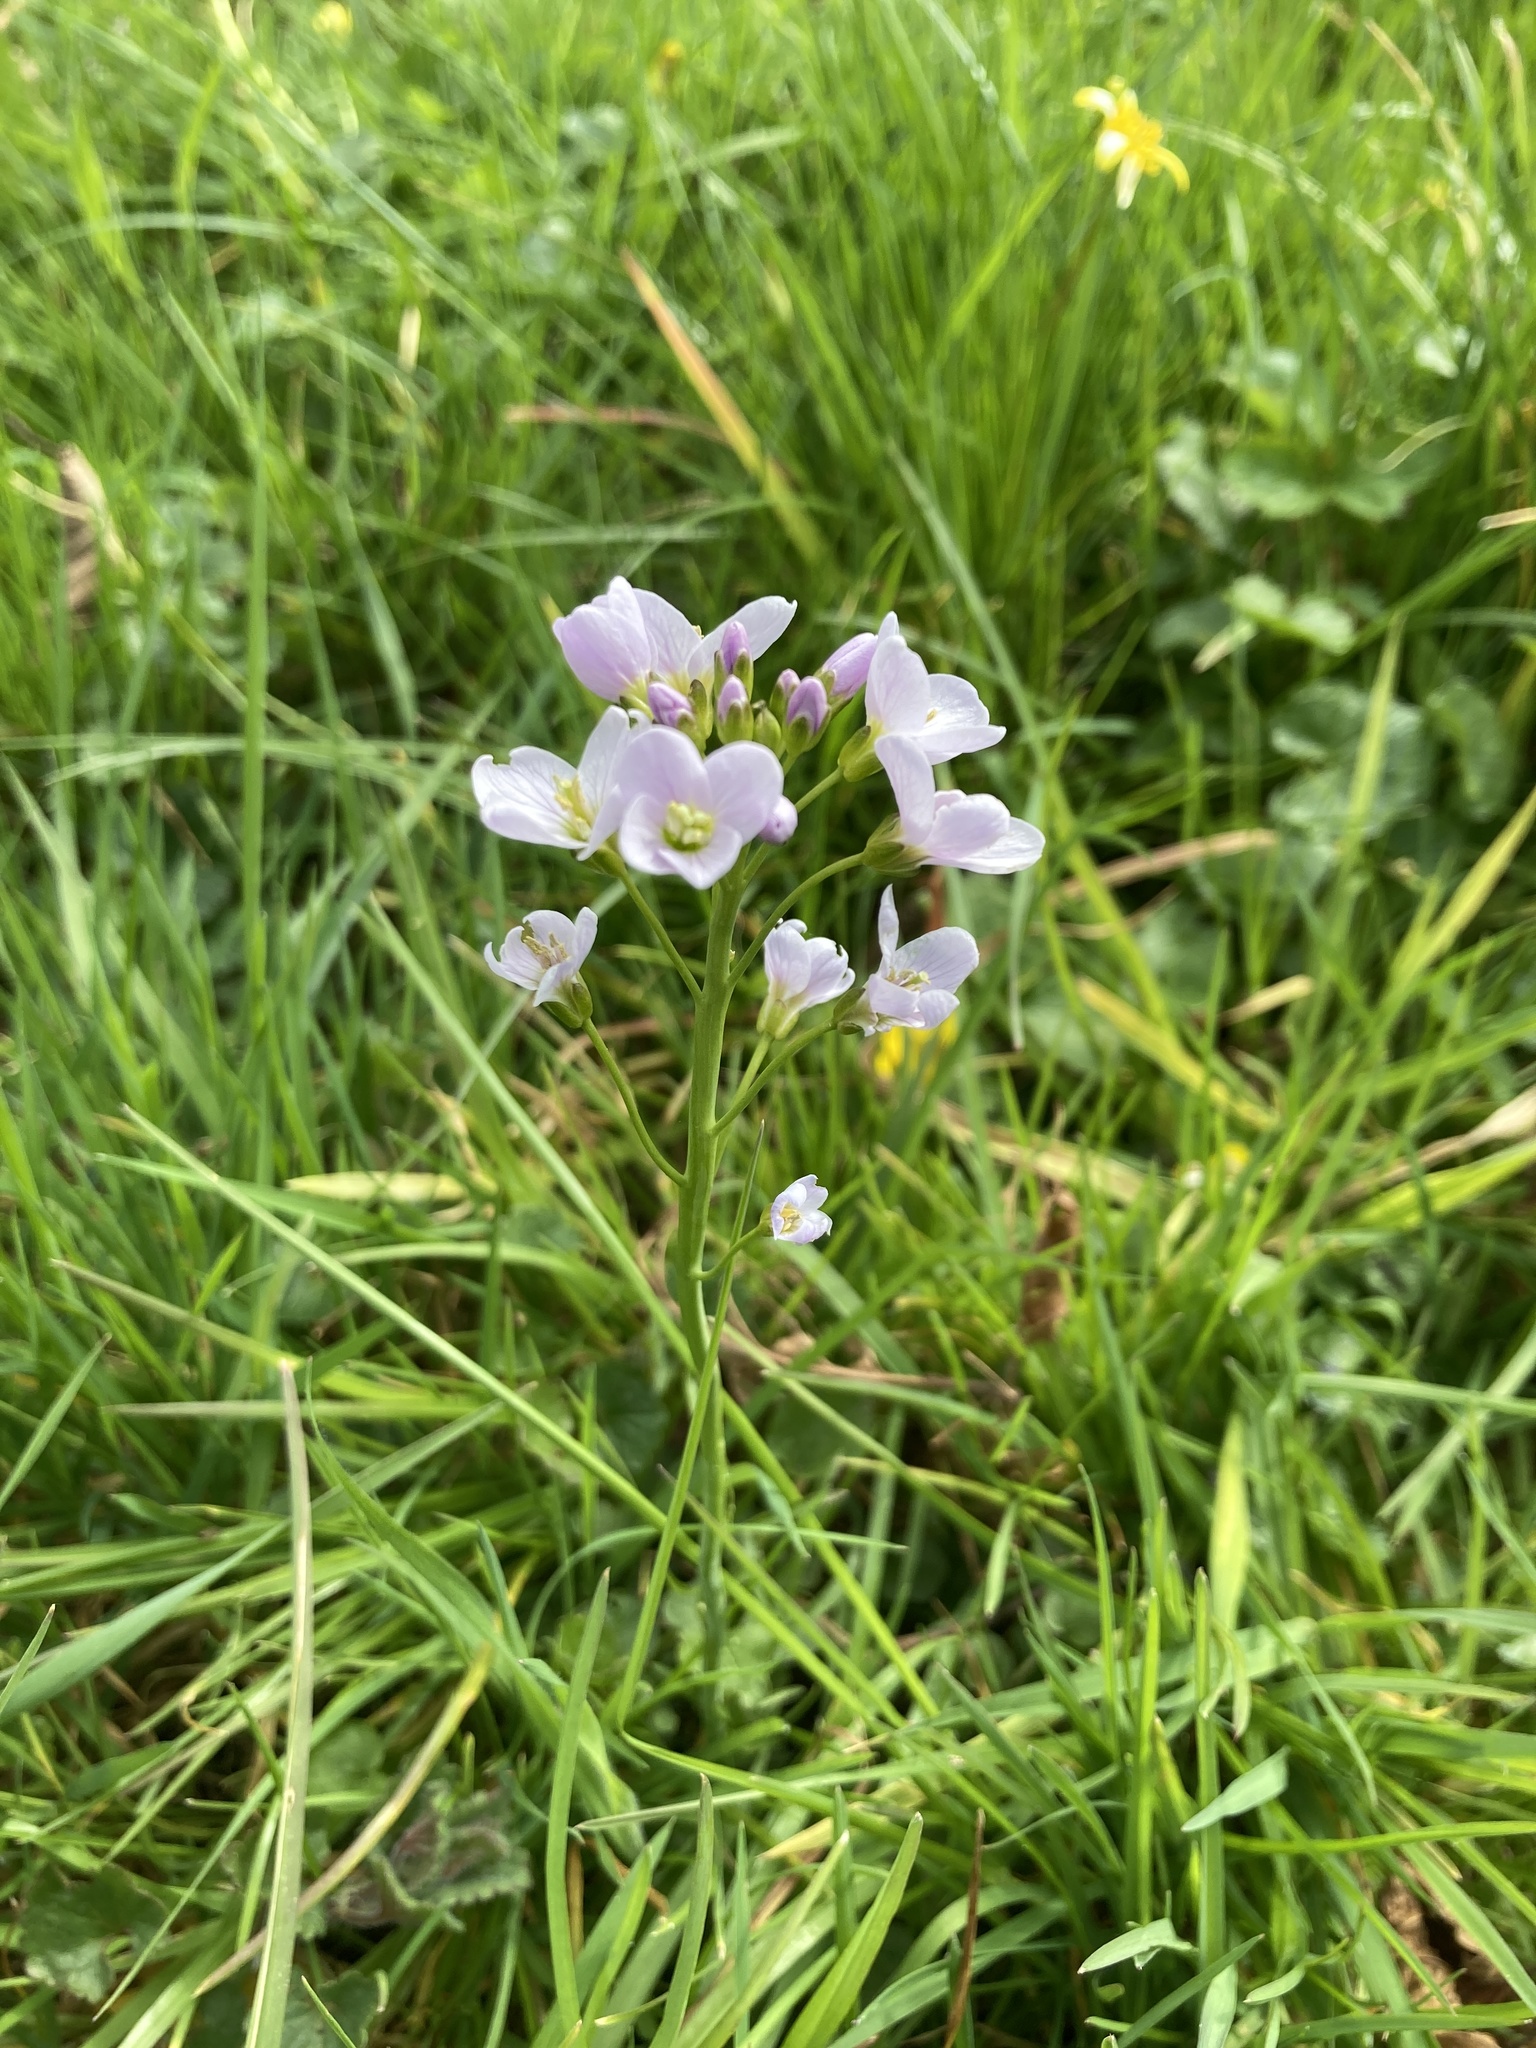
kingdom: Plantae
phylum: Tracheophyta
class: Magnoliopsida
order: Brassicales
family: Brassicaceae
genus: Cardamine
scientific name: Cardamine pratensis
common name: Cuckoo flower
